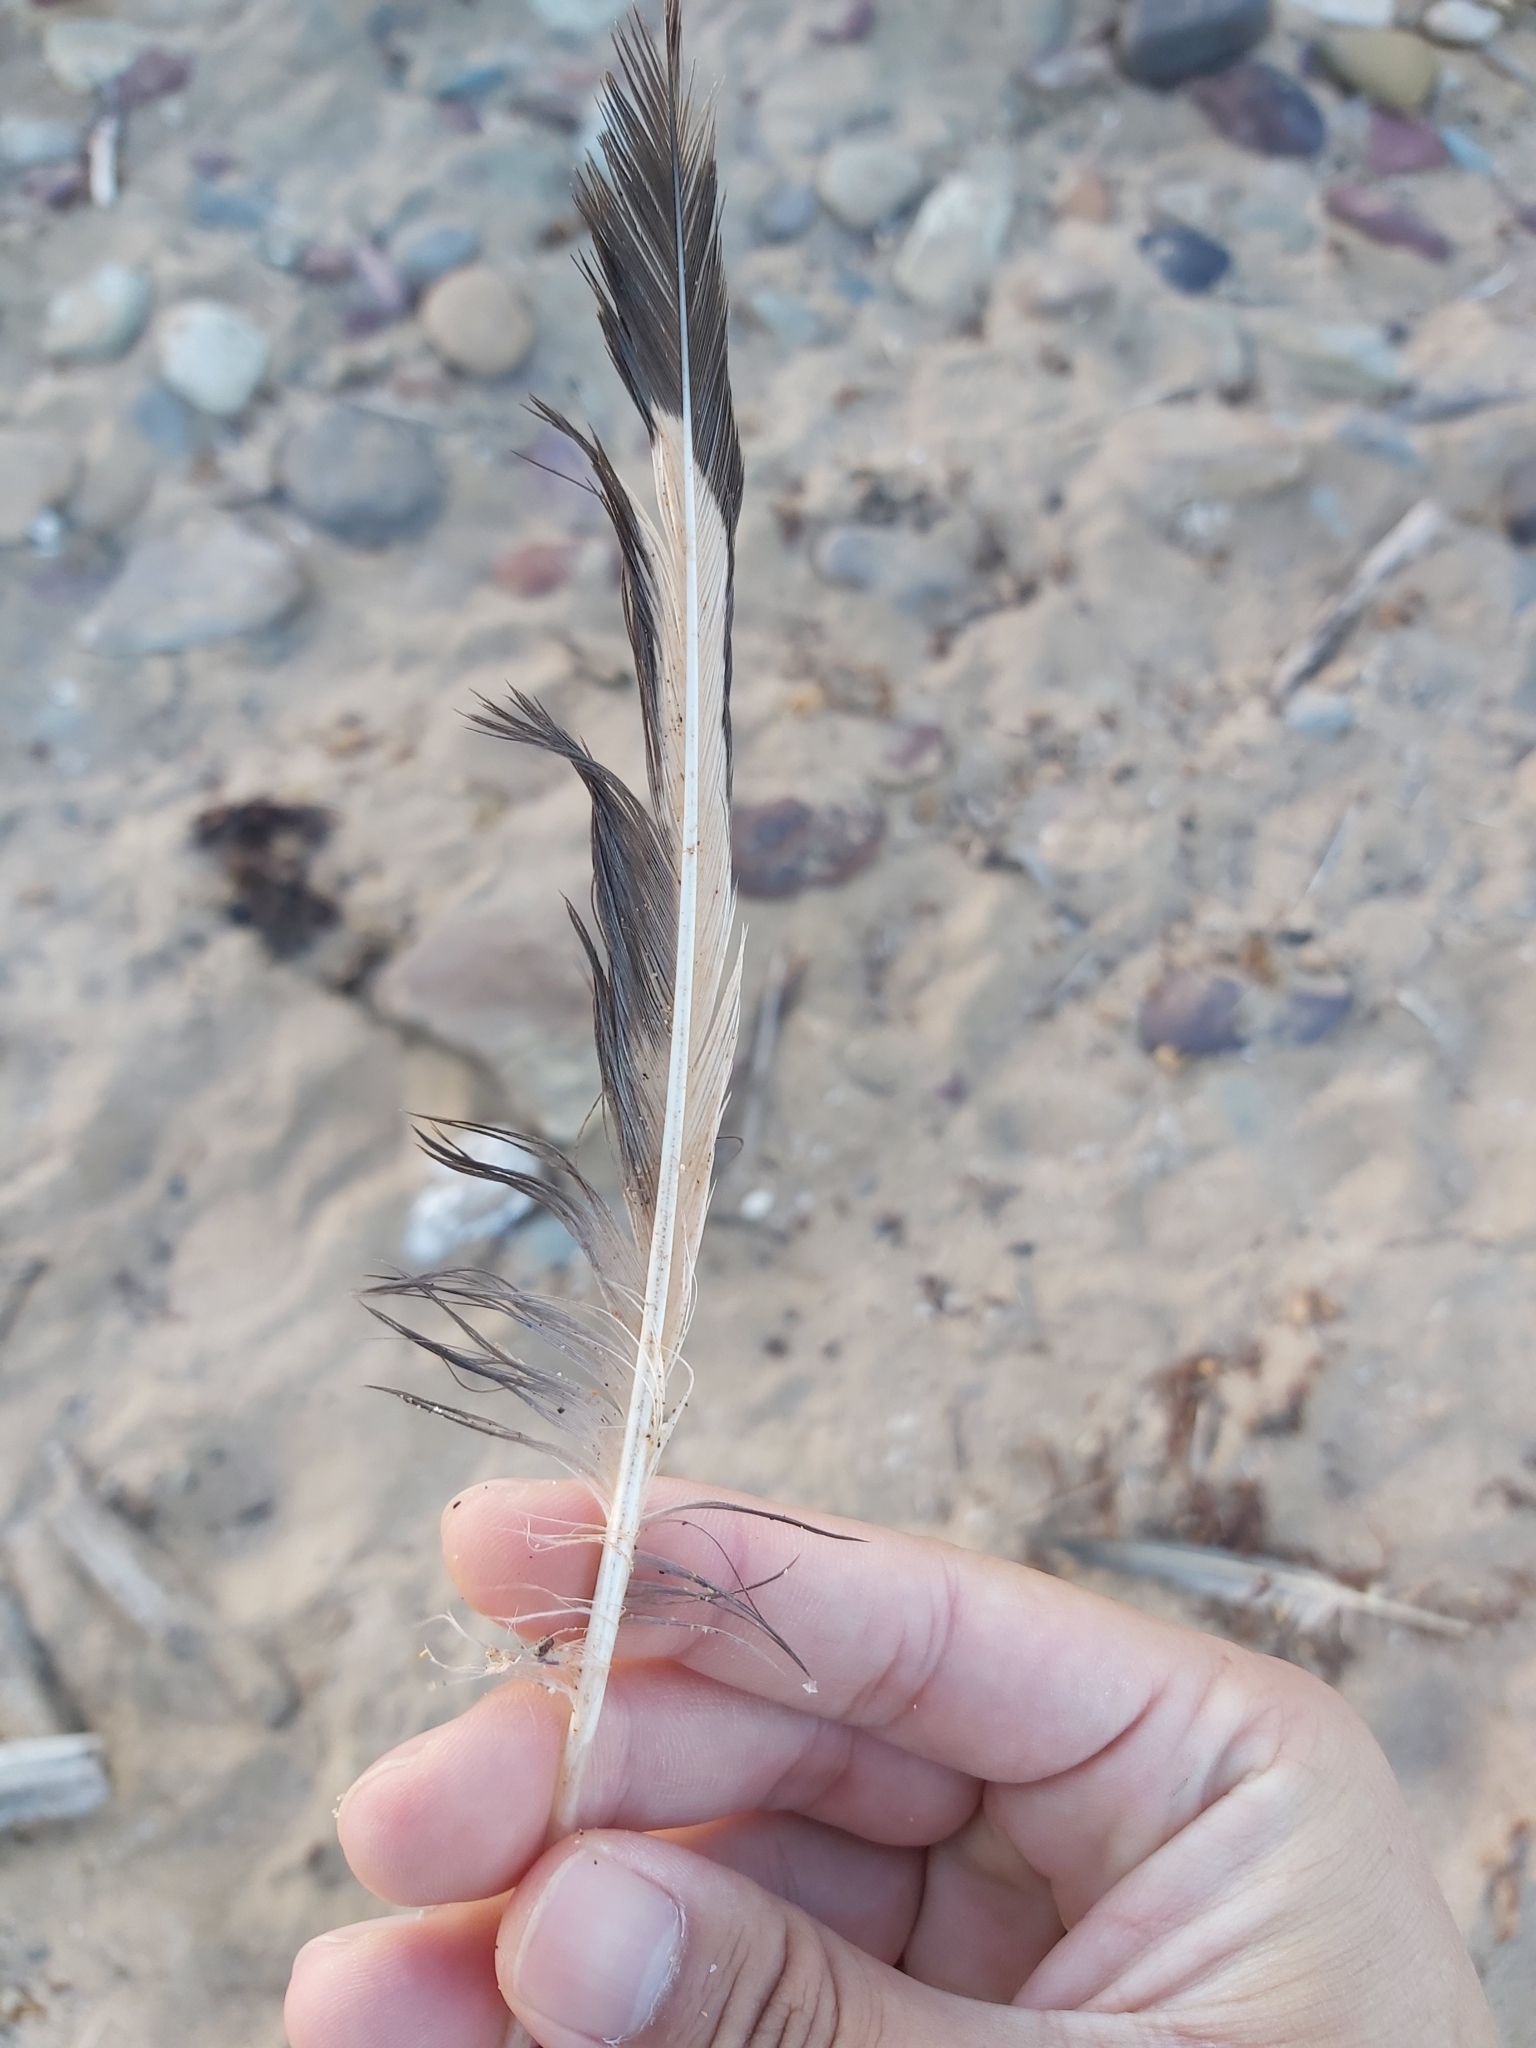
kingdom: Animalia
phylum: Chordata
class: Aves
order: Charadriiformes
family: Laridae
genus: Chroicocephalus
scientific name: Chroicocephalus novaehollandiae
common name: Silver gull
